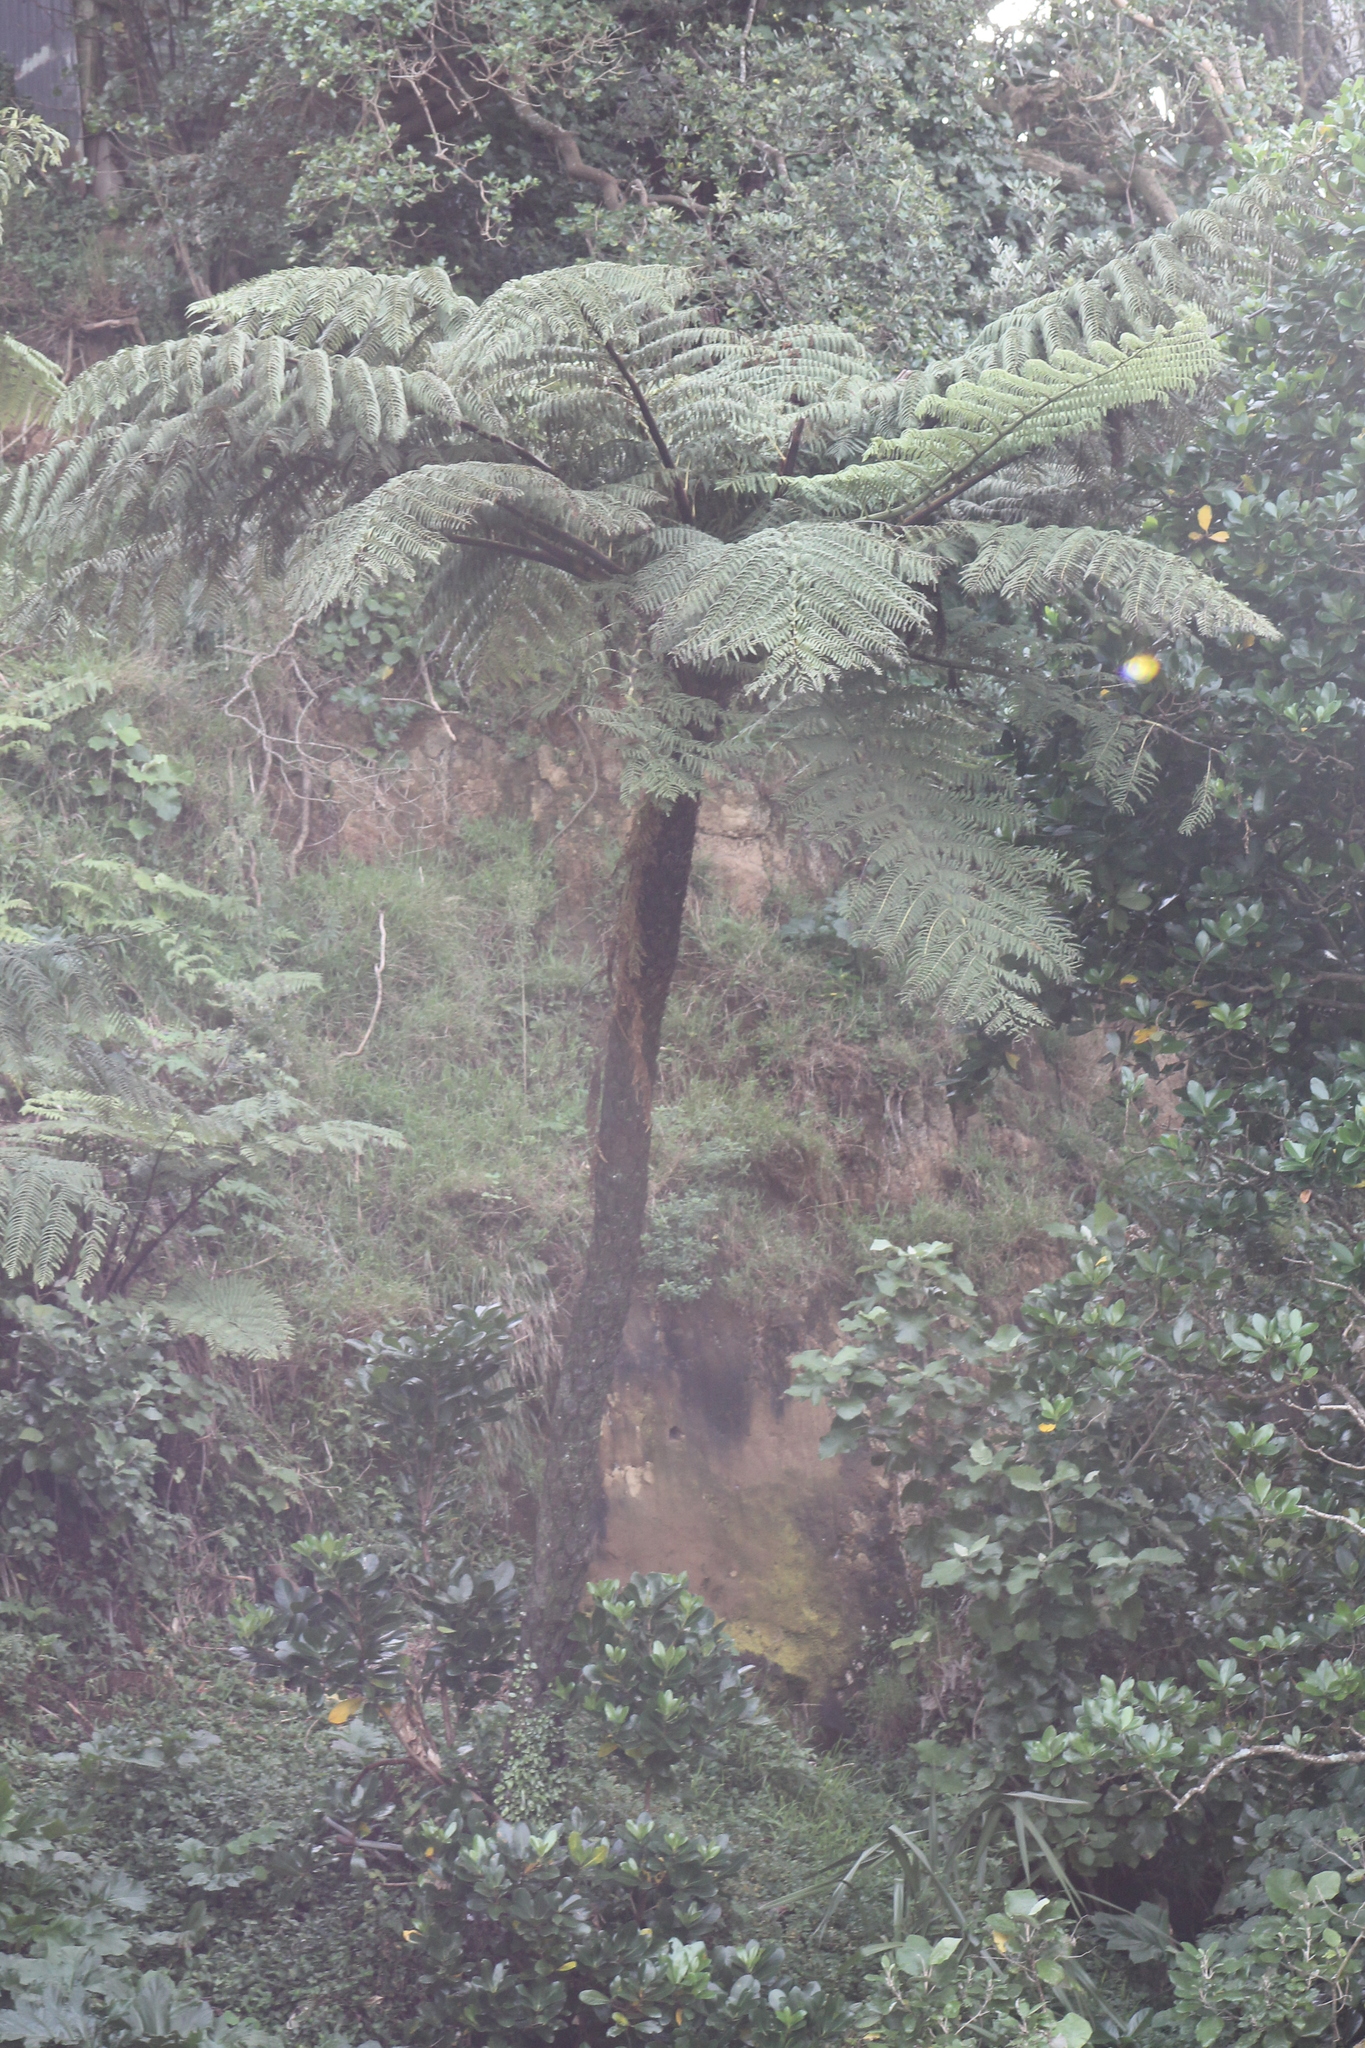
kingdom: Plantae
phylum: Tracheophyta
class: Polypodiopsida
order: Cyatheales
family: Cyatheaceae
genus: Sphaeropteris
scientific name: Sphaeropteris medullaris
